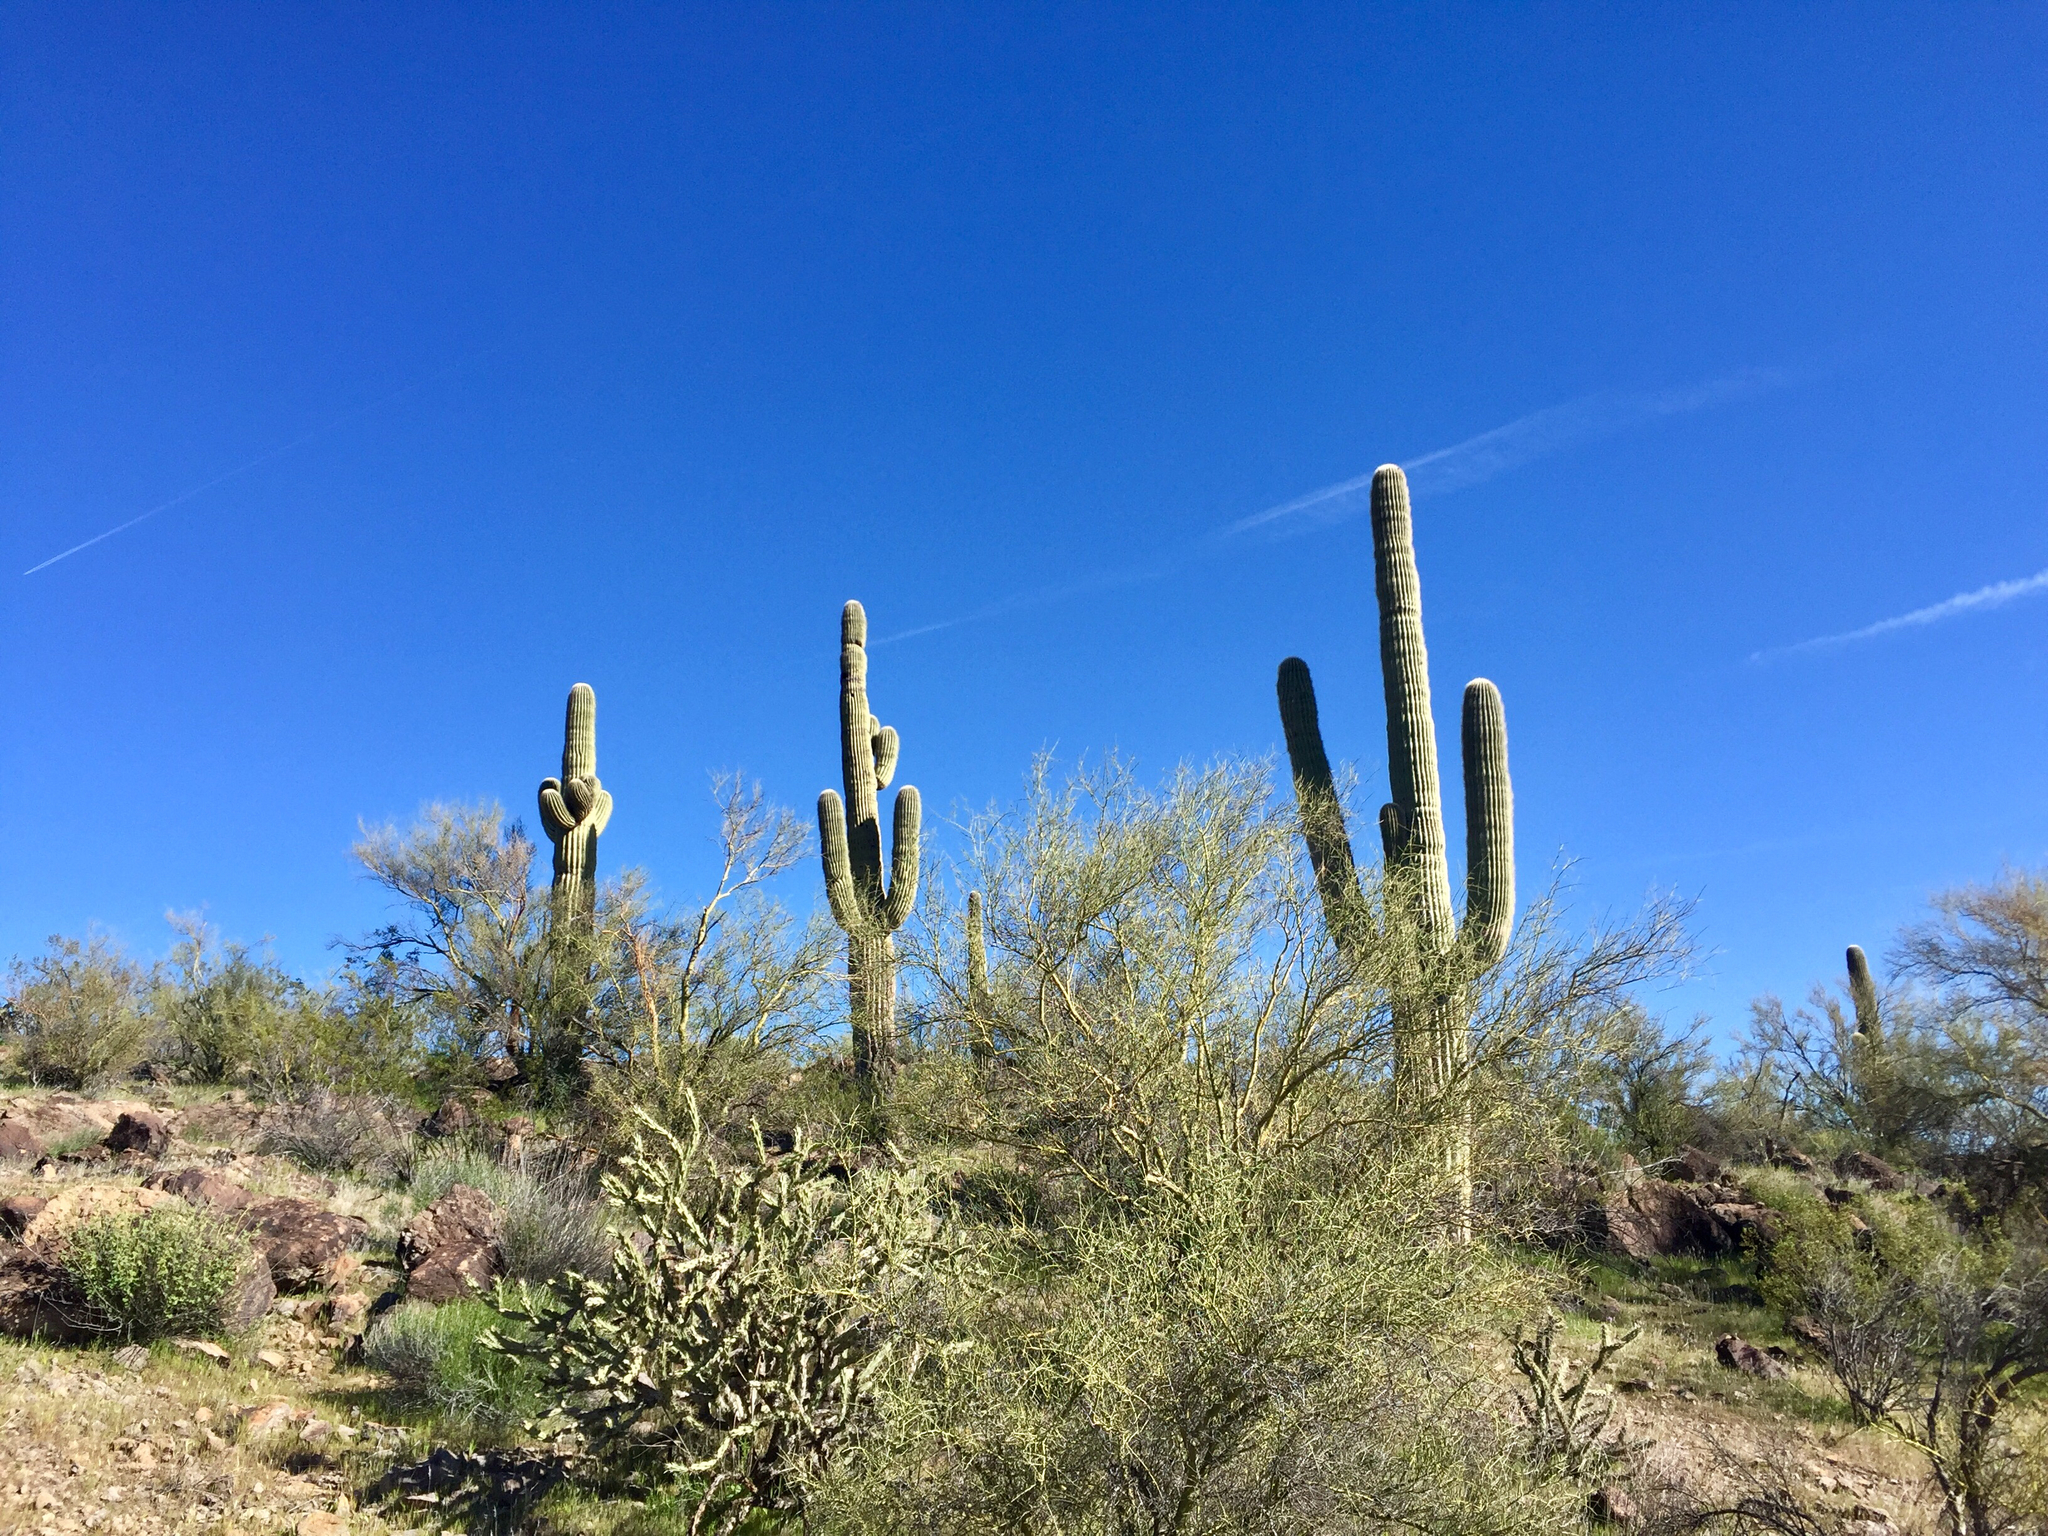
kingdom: Plantae
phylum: Tracheophyta
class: Magnoliopsida
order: Caryophyllales
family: Cactaceae
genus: Carnegiea
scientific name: Carnegiea gigantea
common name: Saguaro
